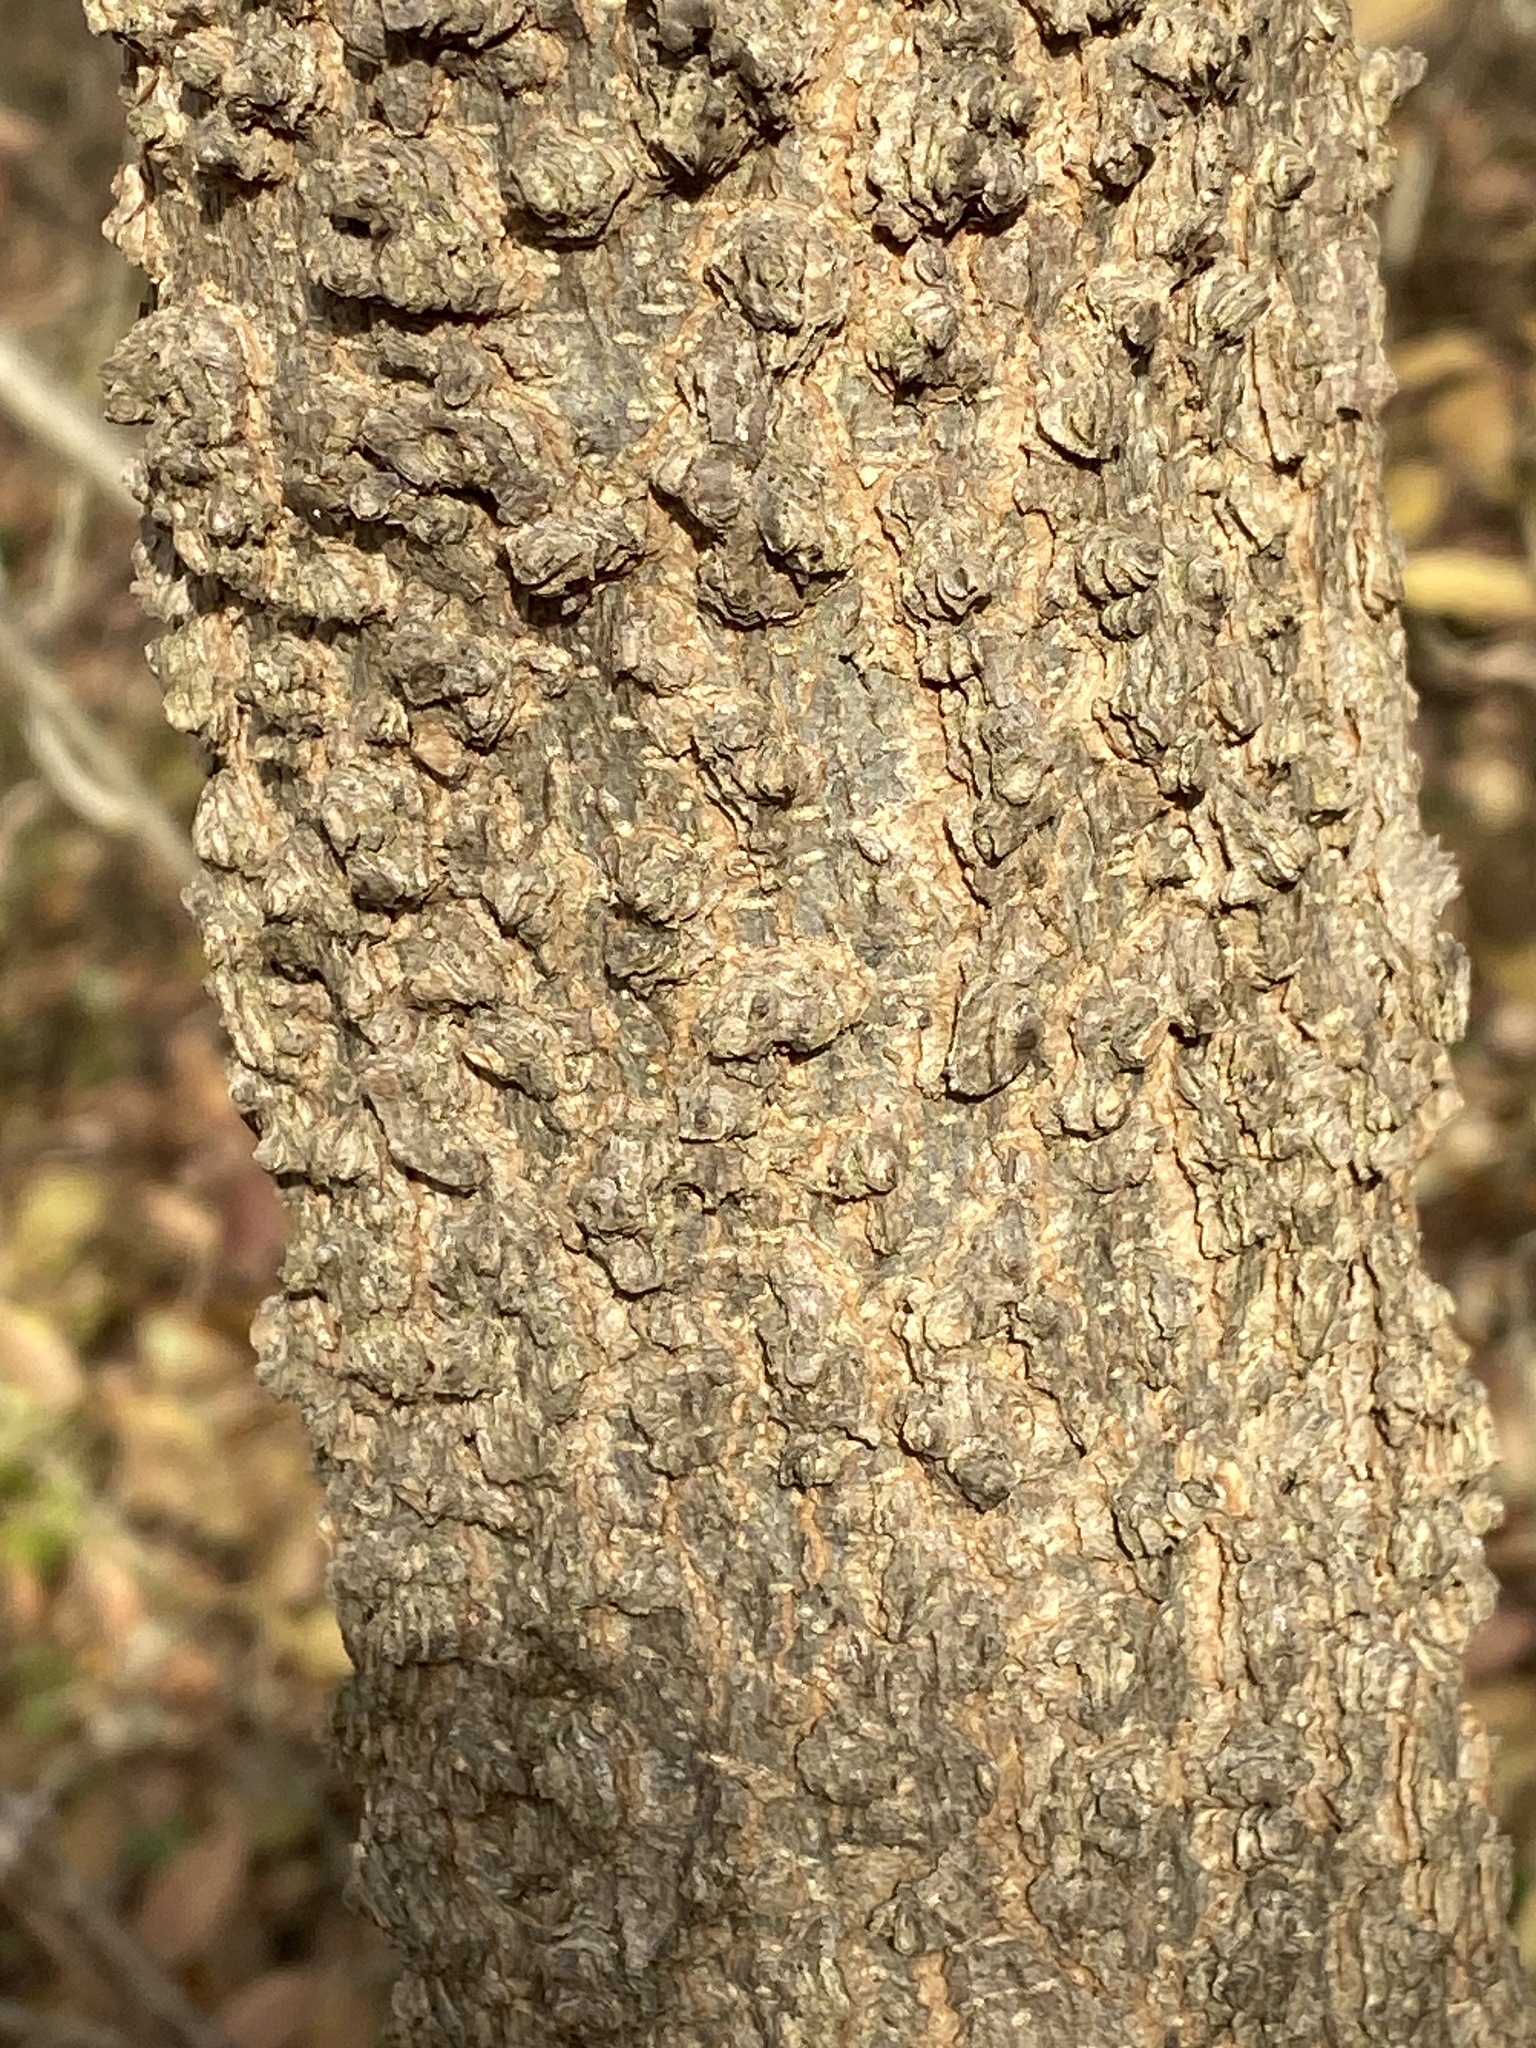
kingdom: Plantae
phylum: Tracheophyta
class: Magnoliopsida
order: Rosales
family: Cannabaceae
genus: Celtis
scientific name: Celtis occidentalis
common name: Common hackberry
